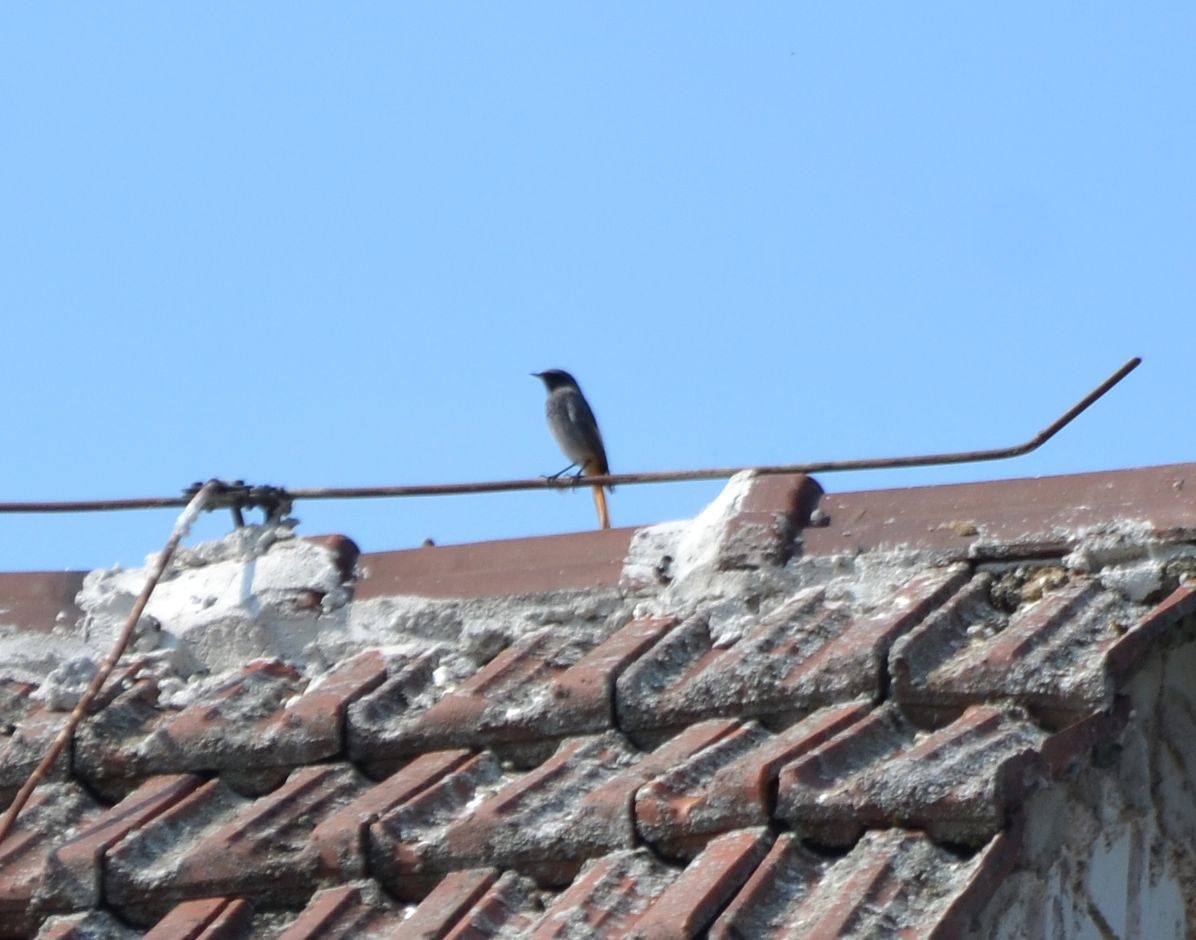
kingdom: Animalia
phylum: Chordata
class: Aves
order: Passeriformes
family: Muscicapidae
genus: Phoenicurus
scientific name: Phoenicurus ochruros
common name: Black redstart
